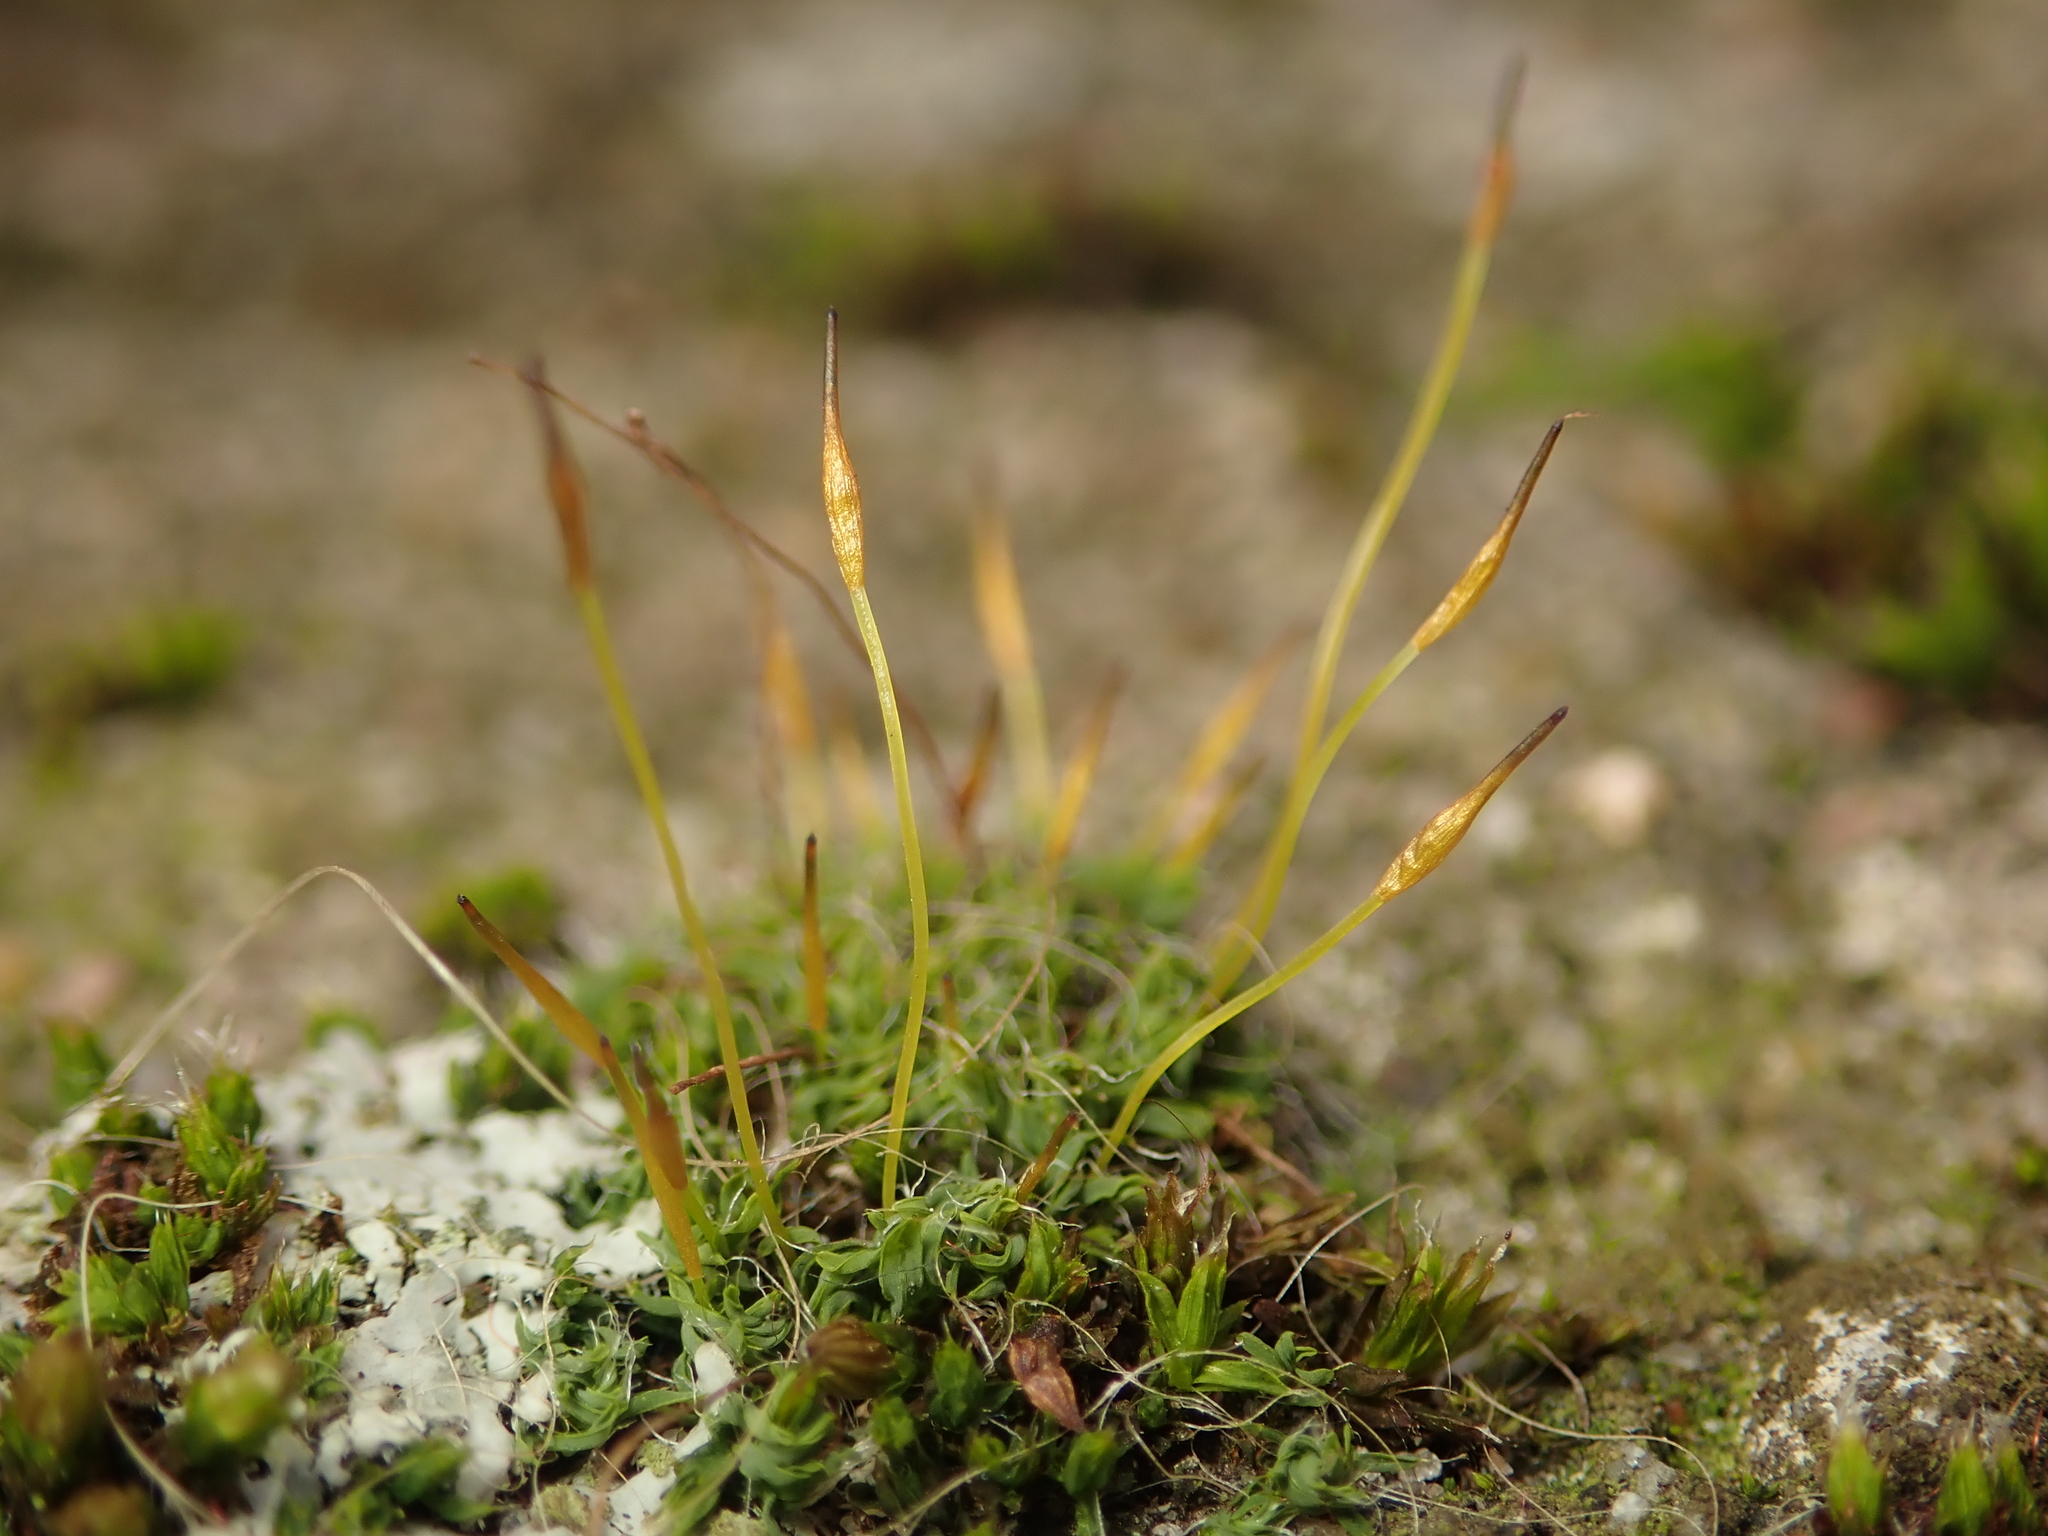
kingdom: Plantae
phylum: Bryophyta
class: Bryopsida
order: Pottiales
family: Pottiaceae
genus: Tortula
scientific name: Tortula muralis
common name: Wall screw-moss
